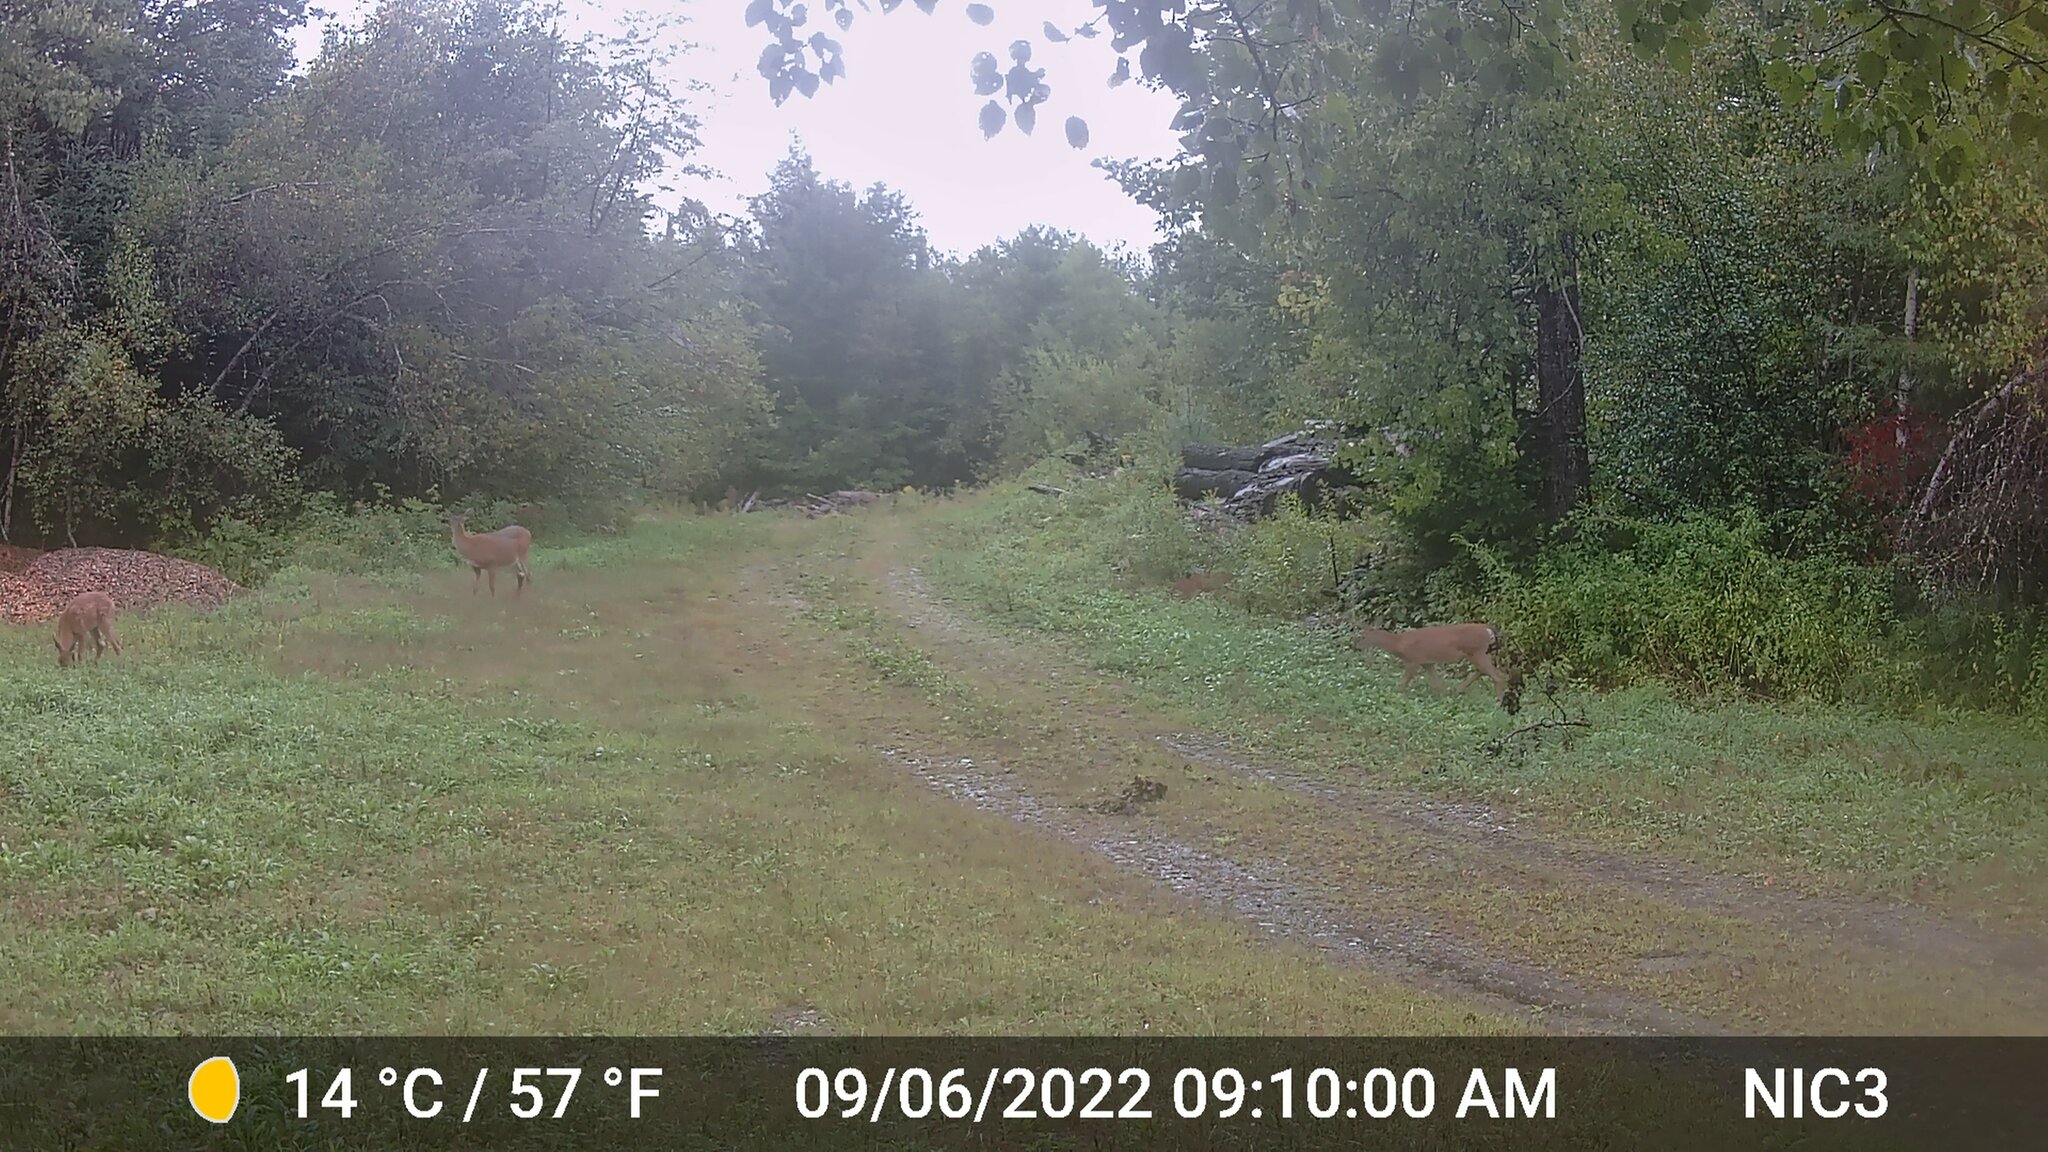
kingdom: Animalia
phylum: Chordata
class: Mammalia
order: Artiodactyla
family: Cervidae
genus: Odocoileus
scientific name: Odocoileus virginianus
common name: White-tailed deer
